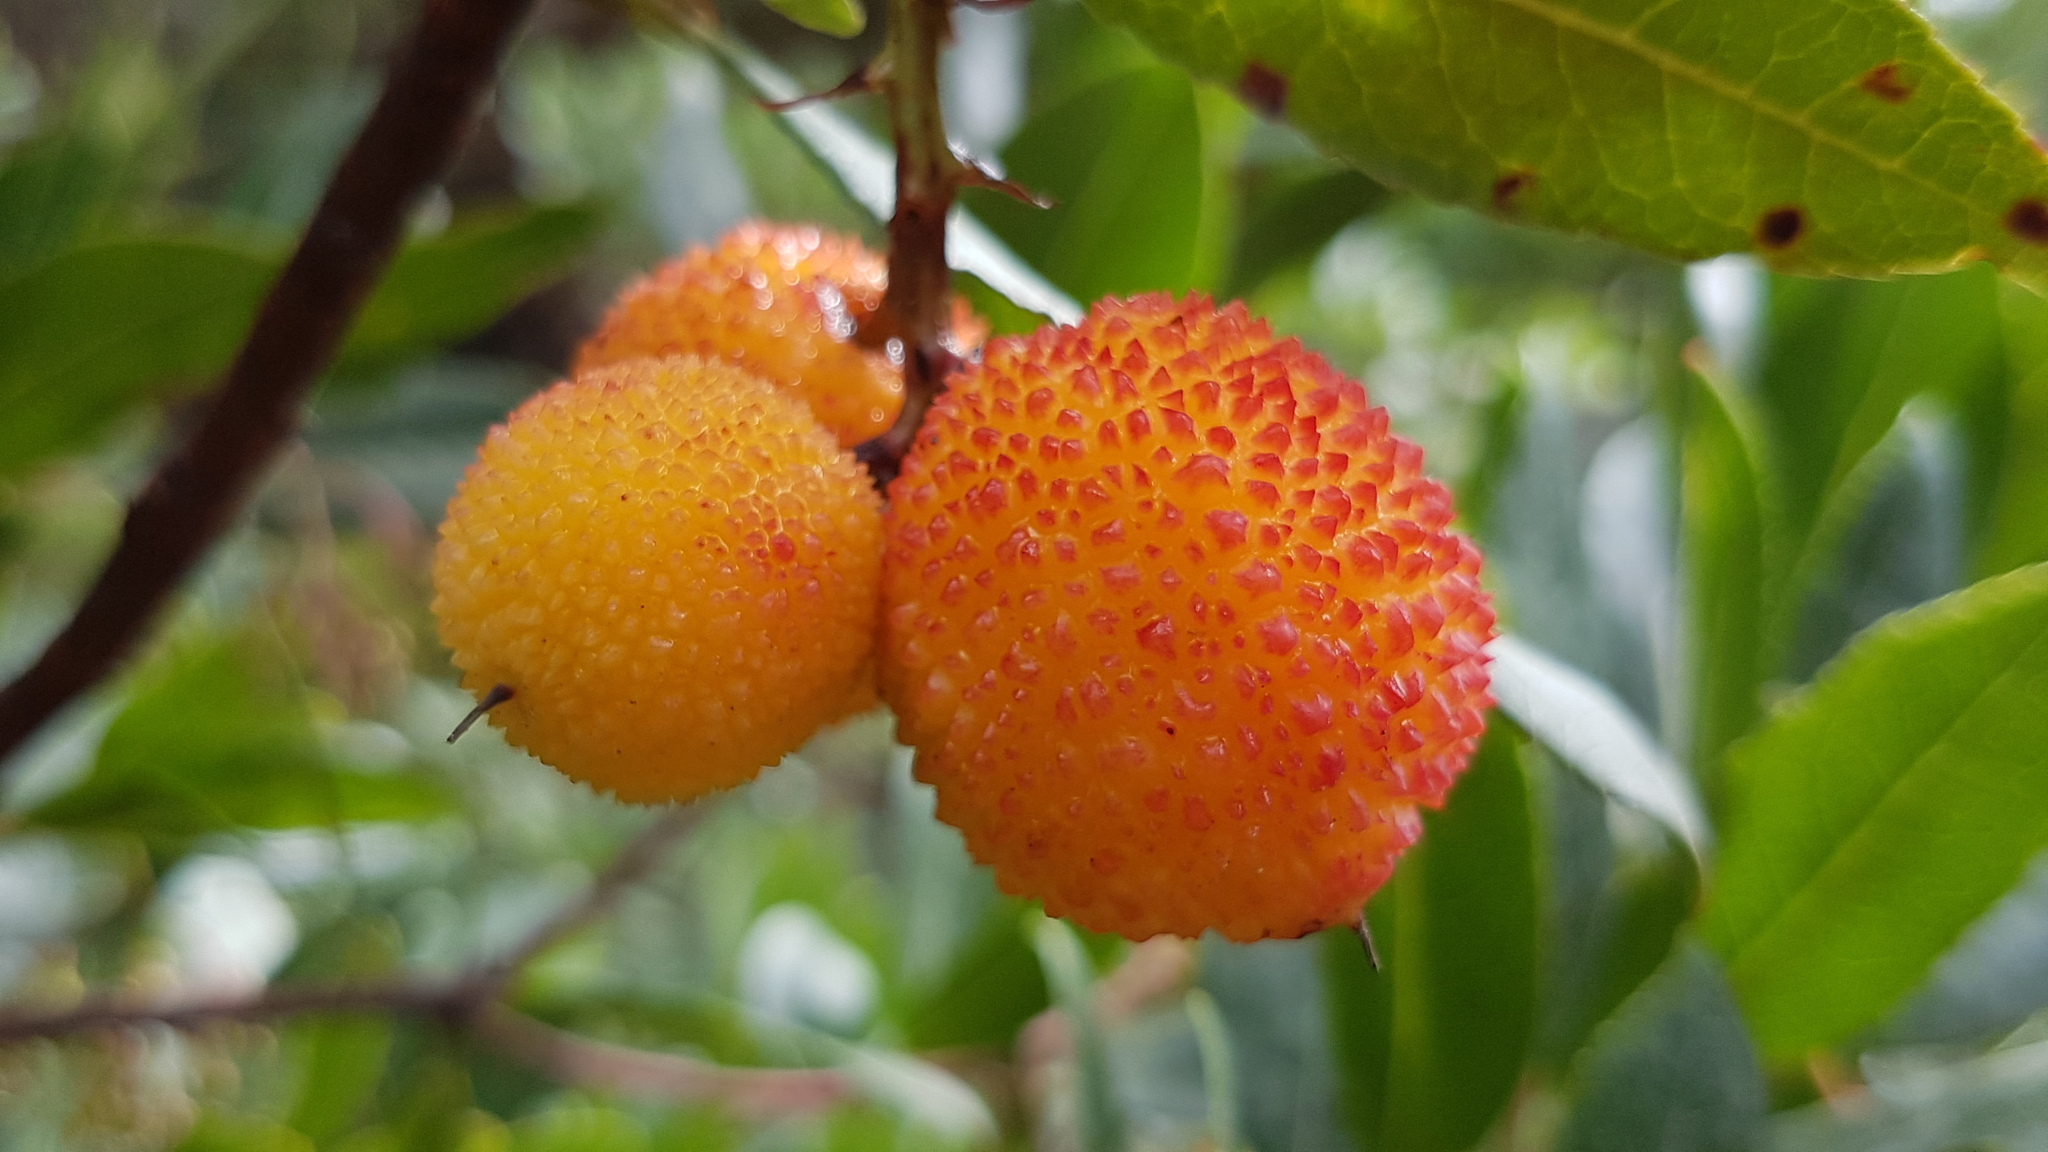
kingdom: Plantae
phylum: Tracheophyta
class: Magnoliopsida
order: Ericales
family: Ericaceae
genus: Arbutus
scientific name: Arbutus unedo
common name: Strawberry-tree
